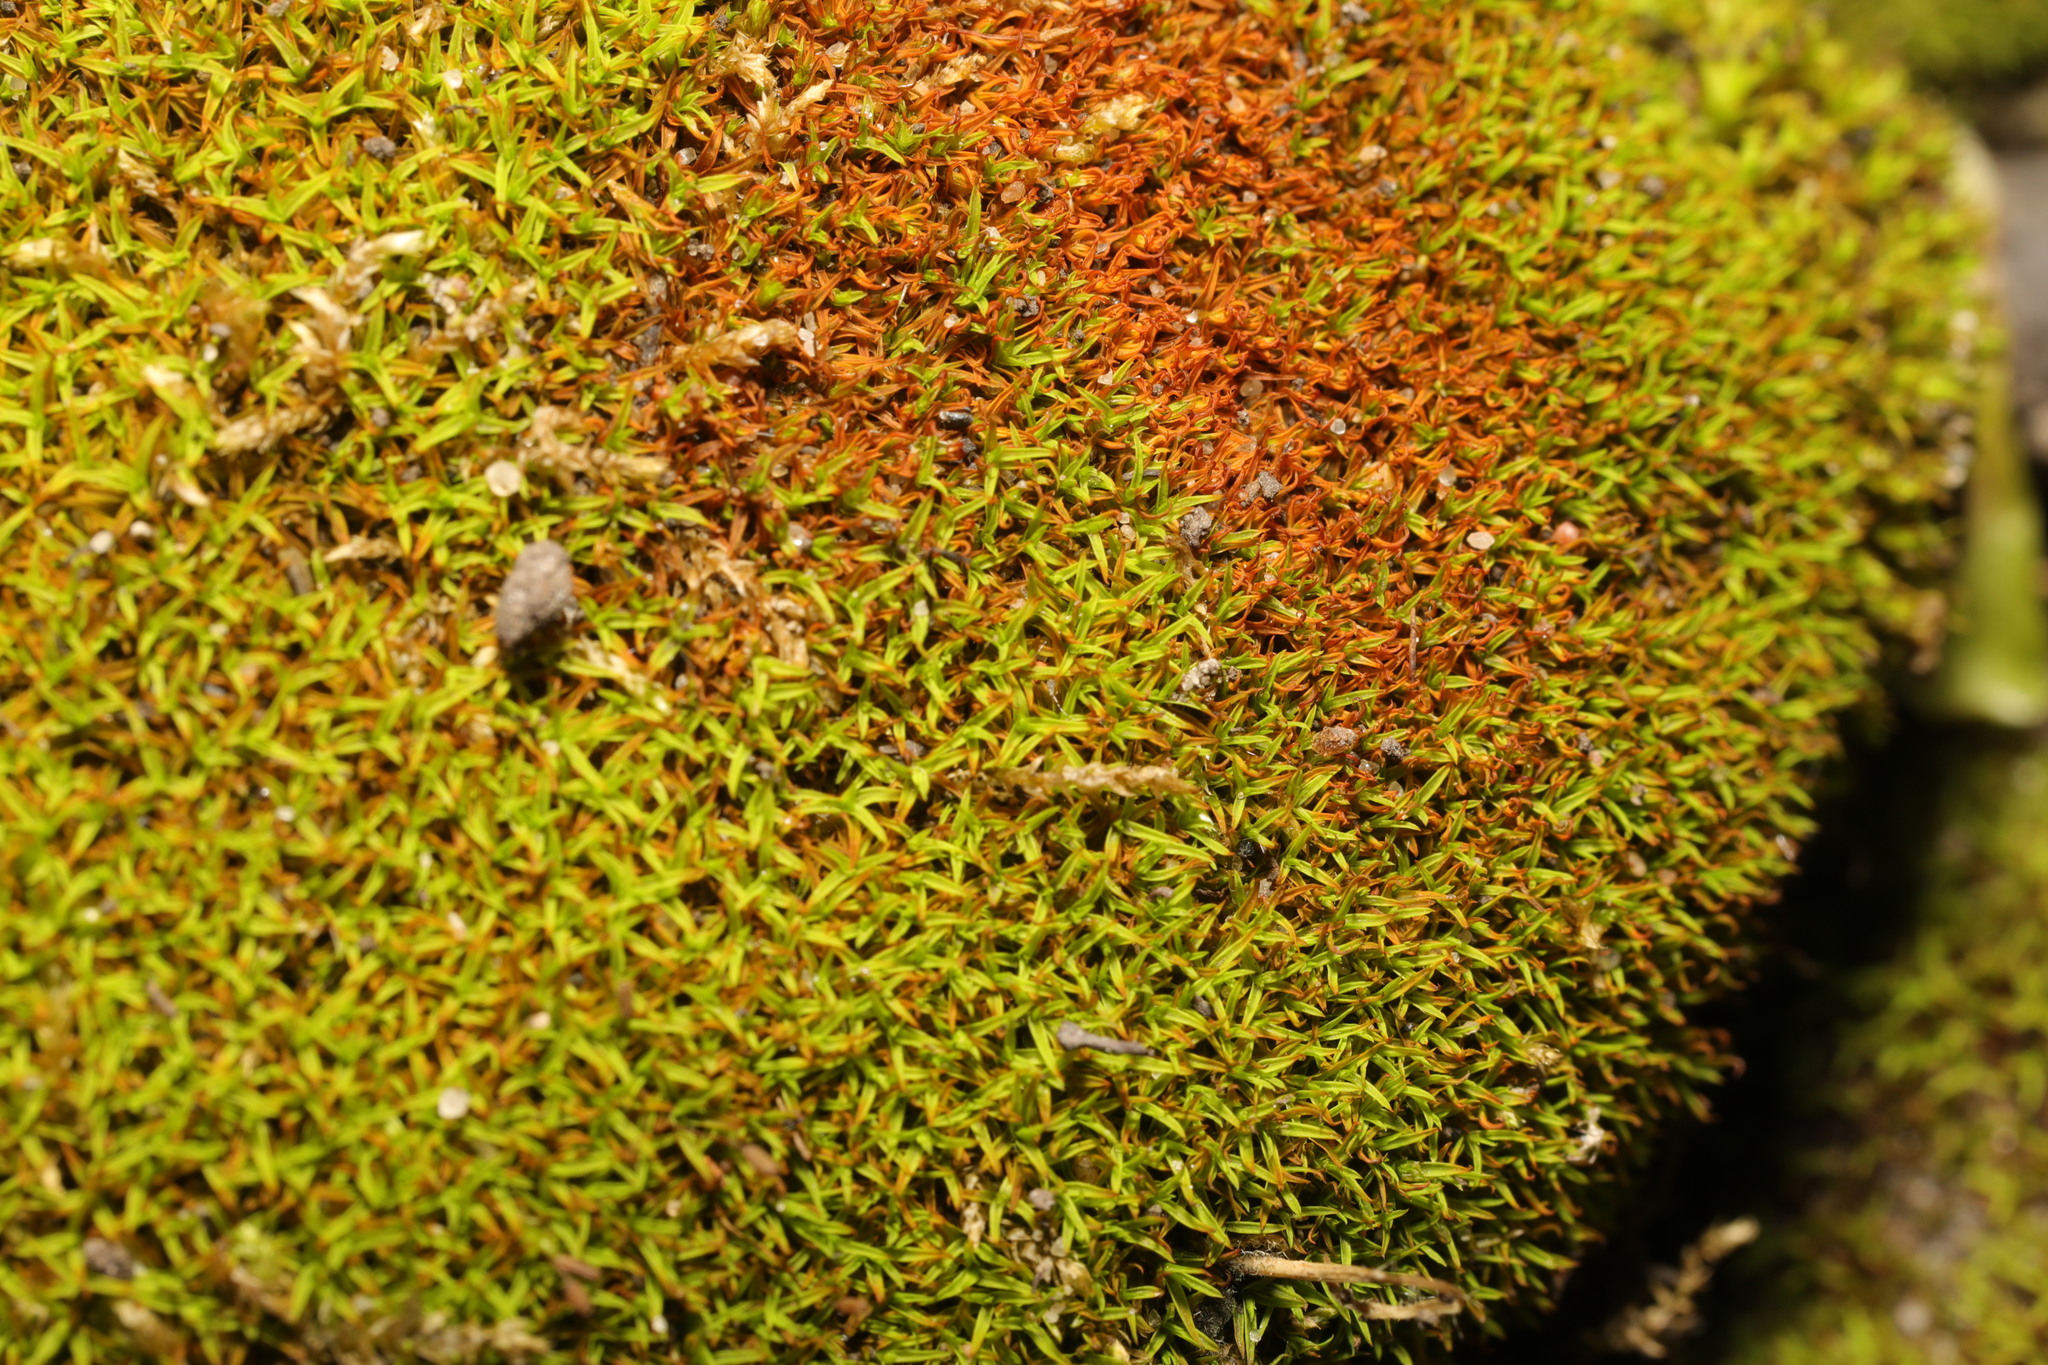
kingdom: Plantae
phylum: Bryophyta
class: Bryopsida
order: Pottiales
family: Pottiaceae
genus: Bryoerythrophyllum
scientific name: Bryoerythrophyllum recurvirostrum
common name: Red beard moss
